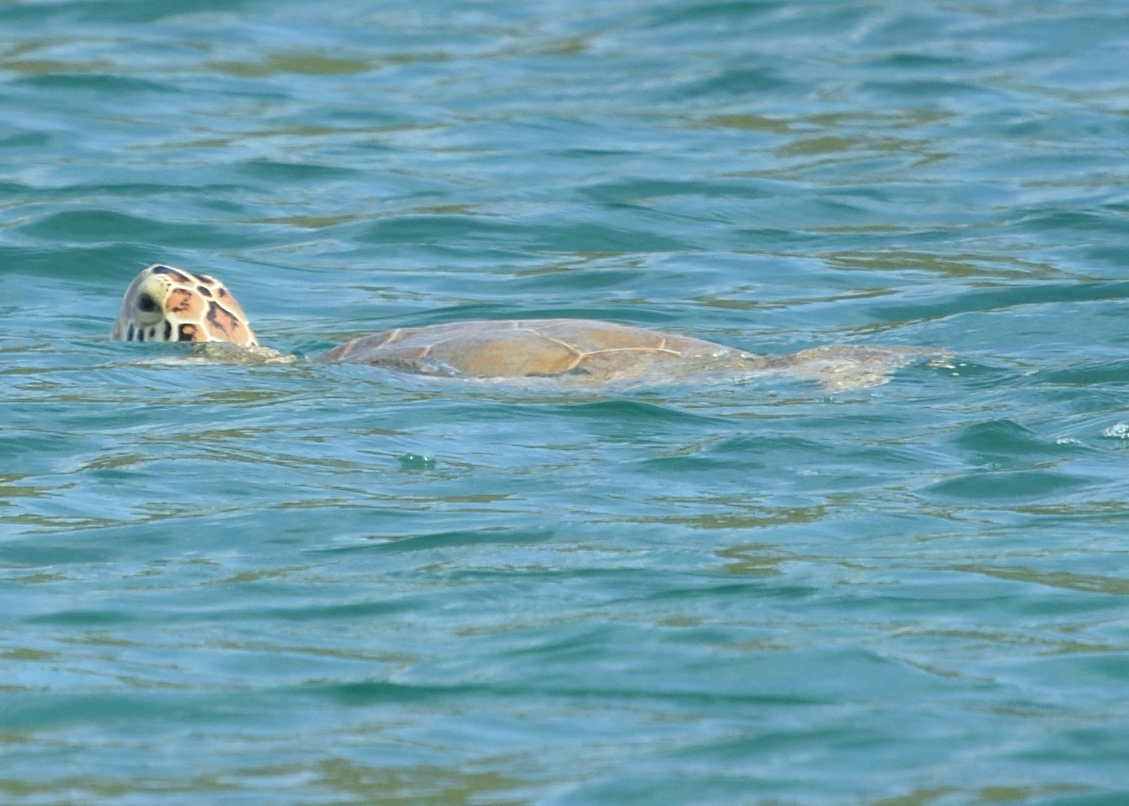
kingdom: Animalia
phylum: Chordata
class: Testudines
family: Cheloniidae
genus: Chelonia
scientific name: Chelonia mydas
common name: Green turtle
